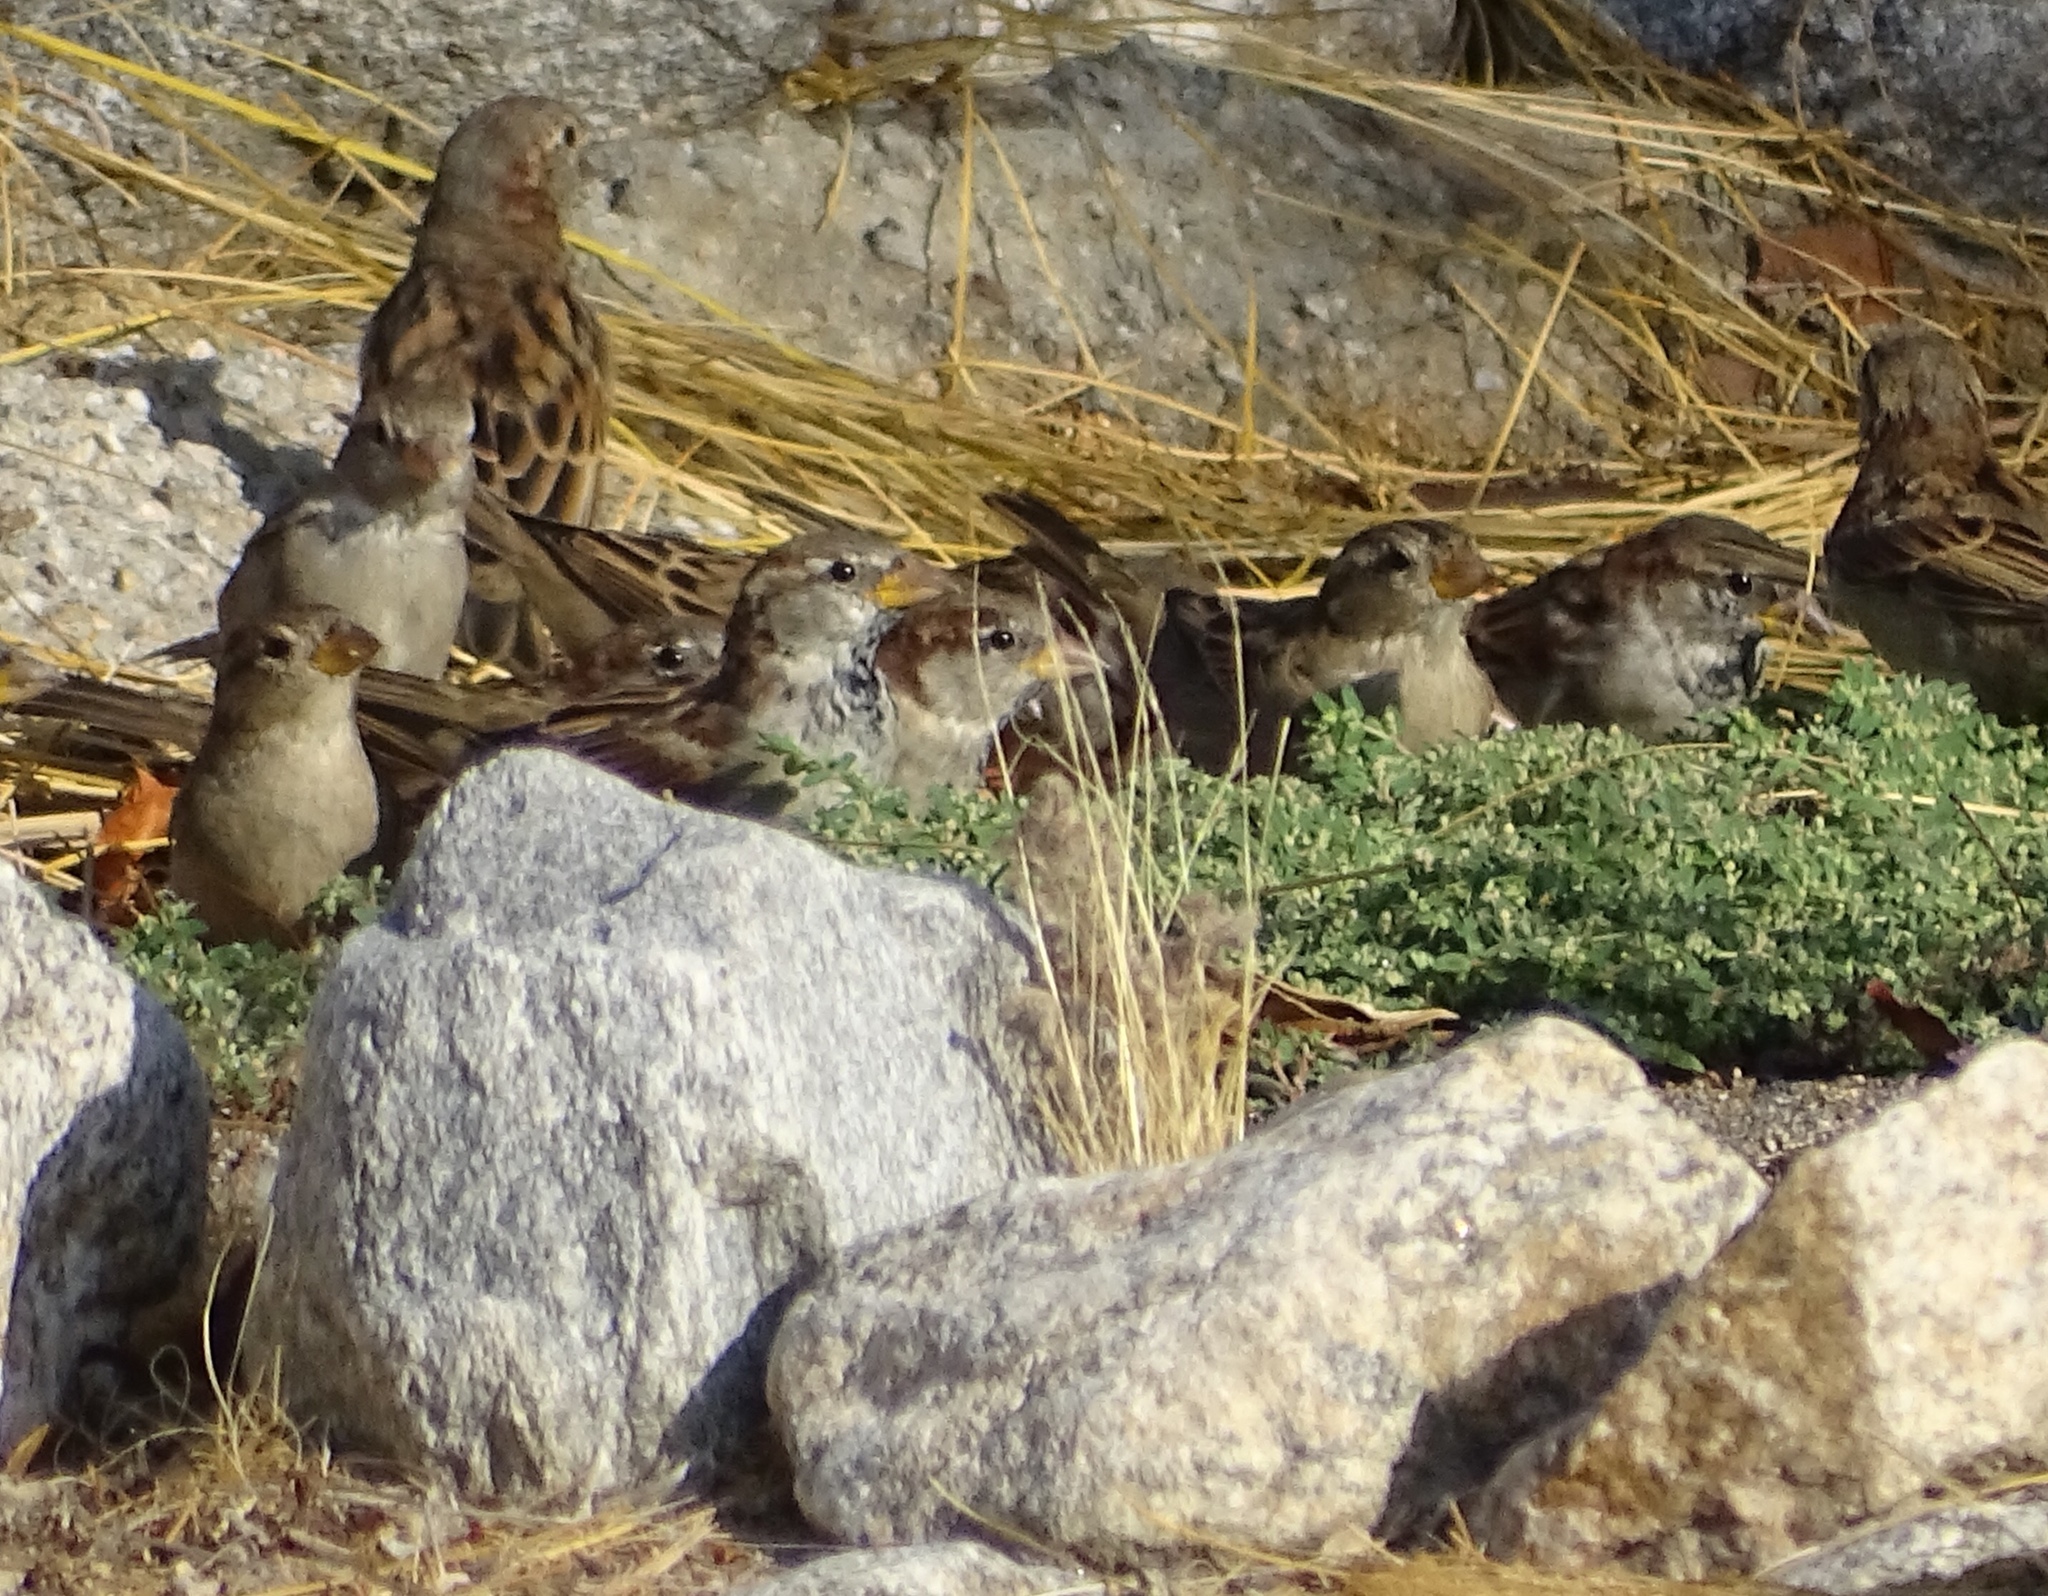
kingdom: Animalia
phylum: Chordata
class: Aves
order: Passeriformes
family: Passeridae
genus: Passer
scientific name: Passer domesticus
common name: House sparrow
